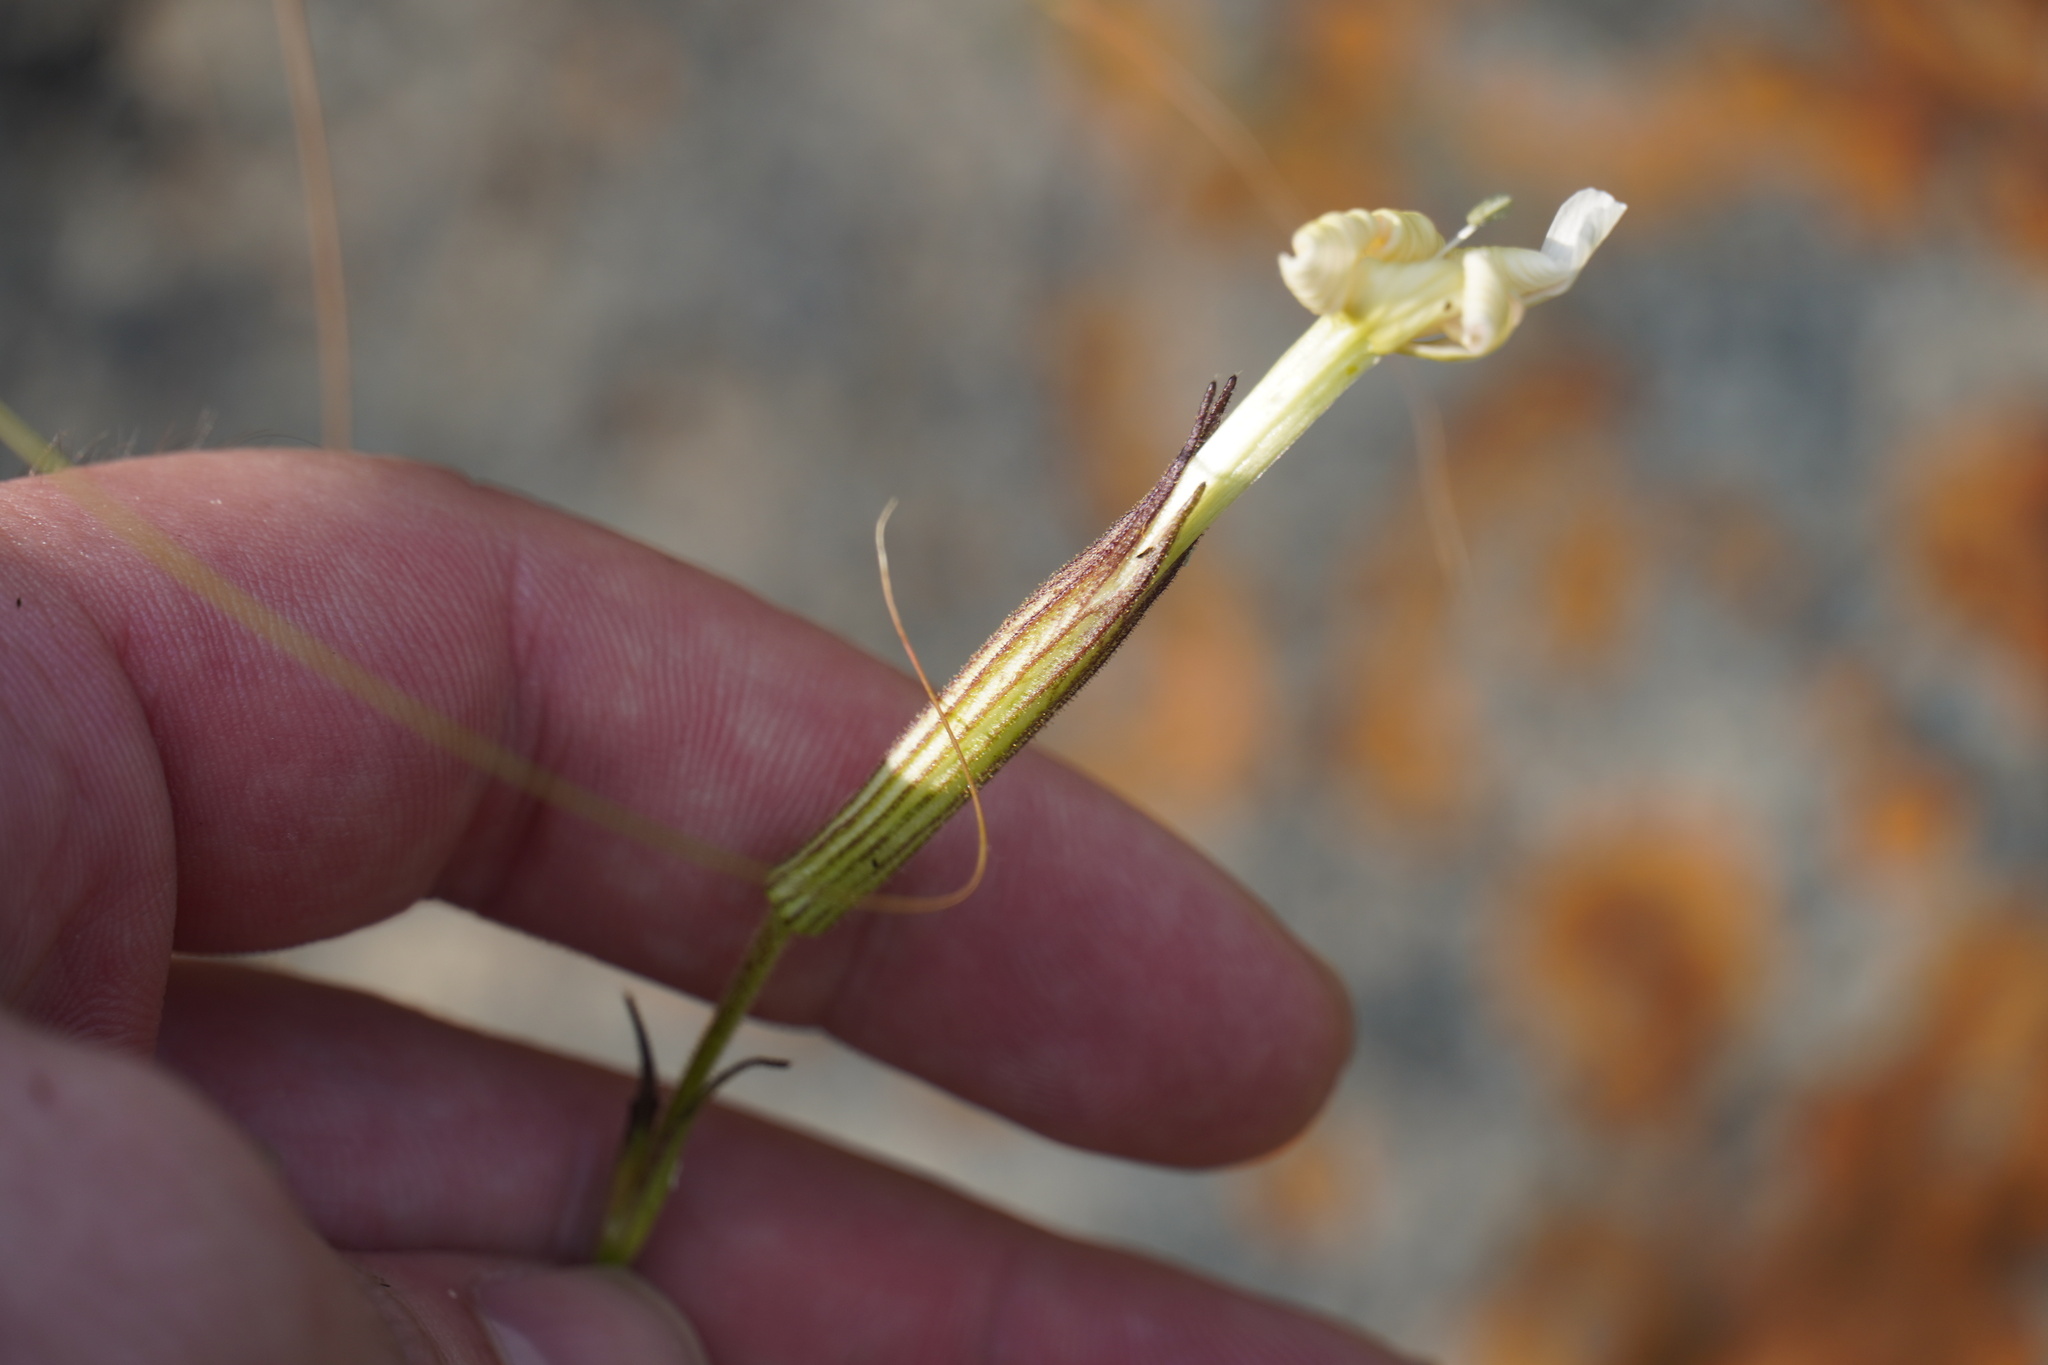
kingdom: Plantae
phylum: Tracheophyta
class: Magnoliopsida
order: Caryophyllales
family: Caryophyllaceae
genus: Silene
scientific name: Silene undulata
